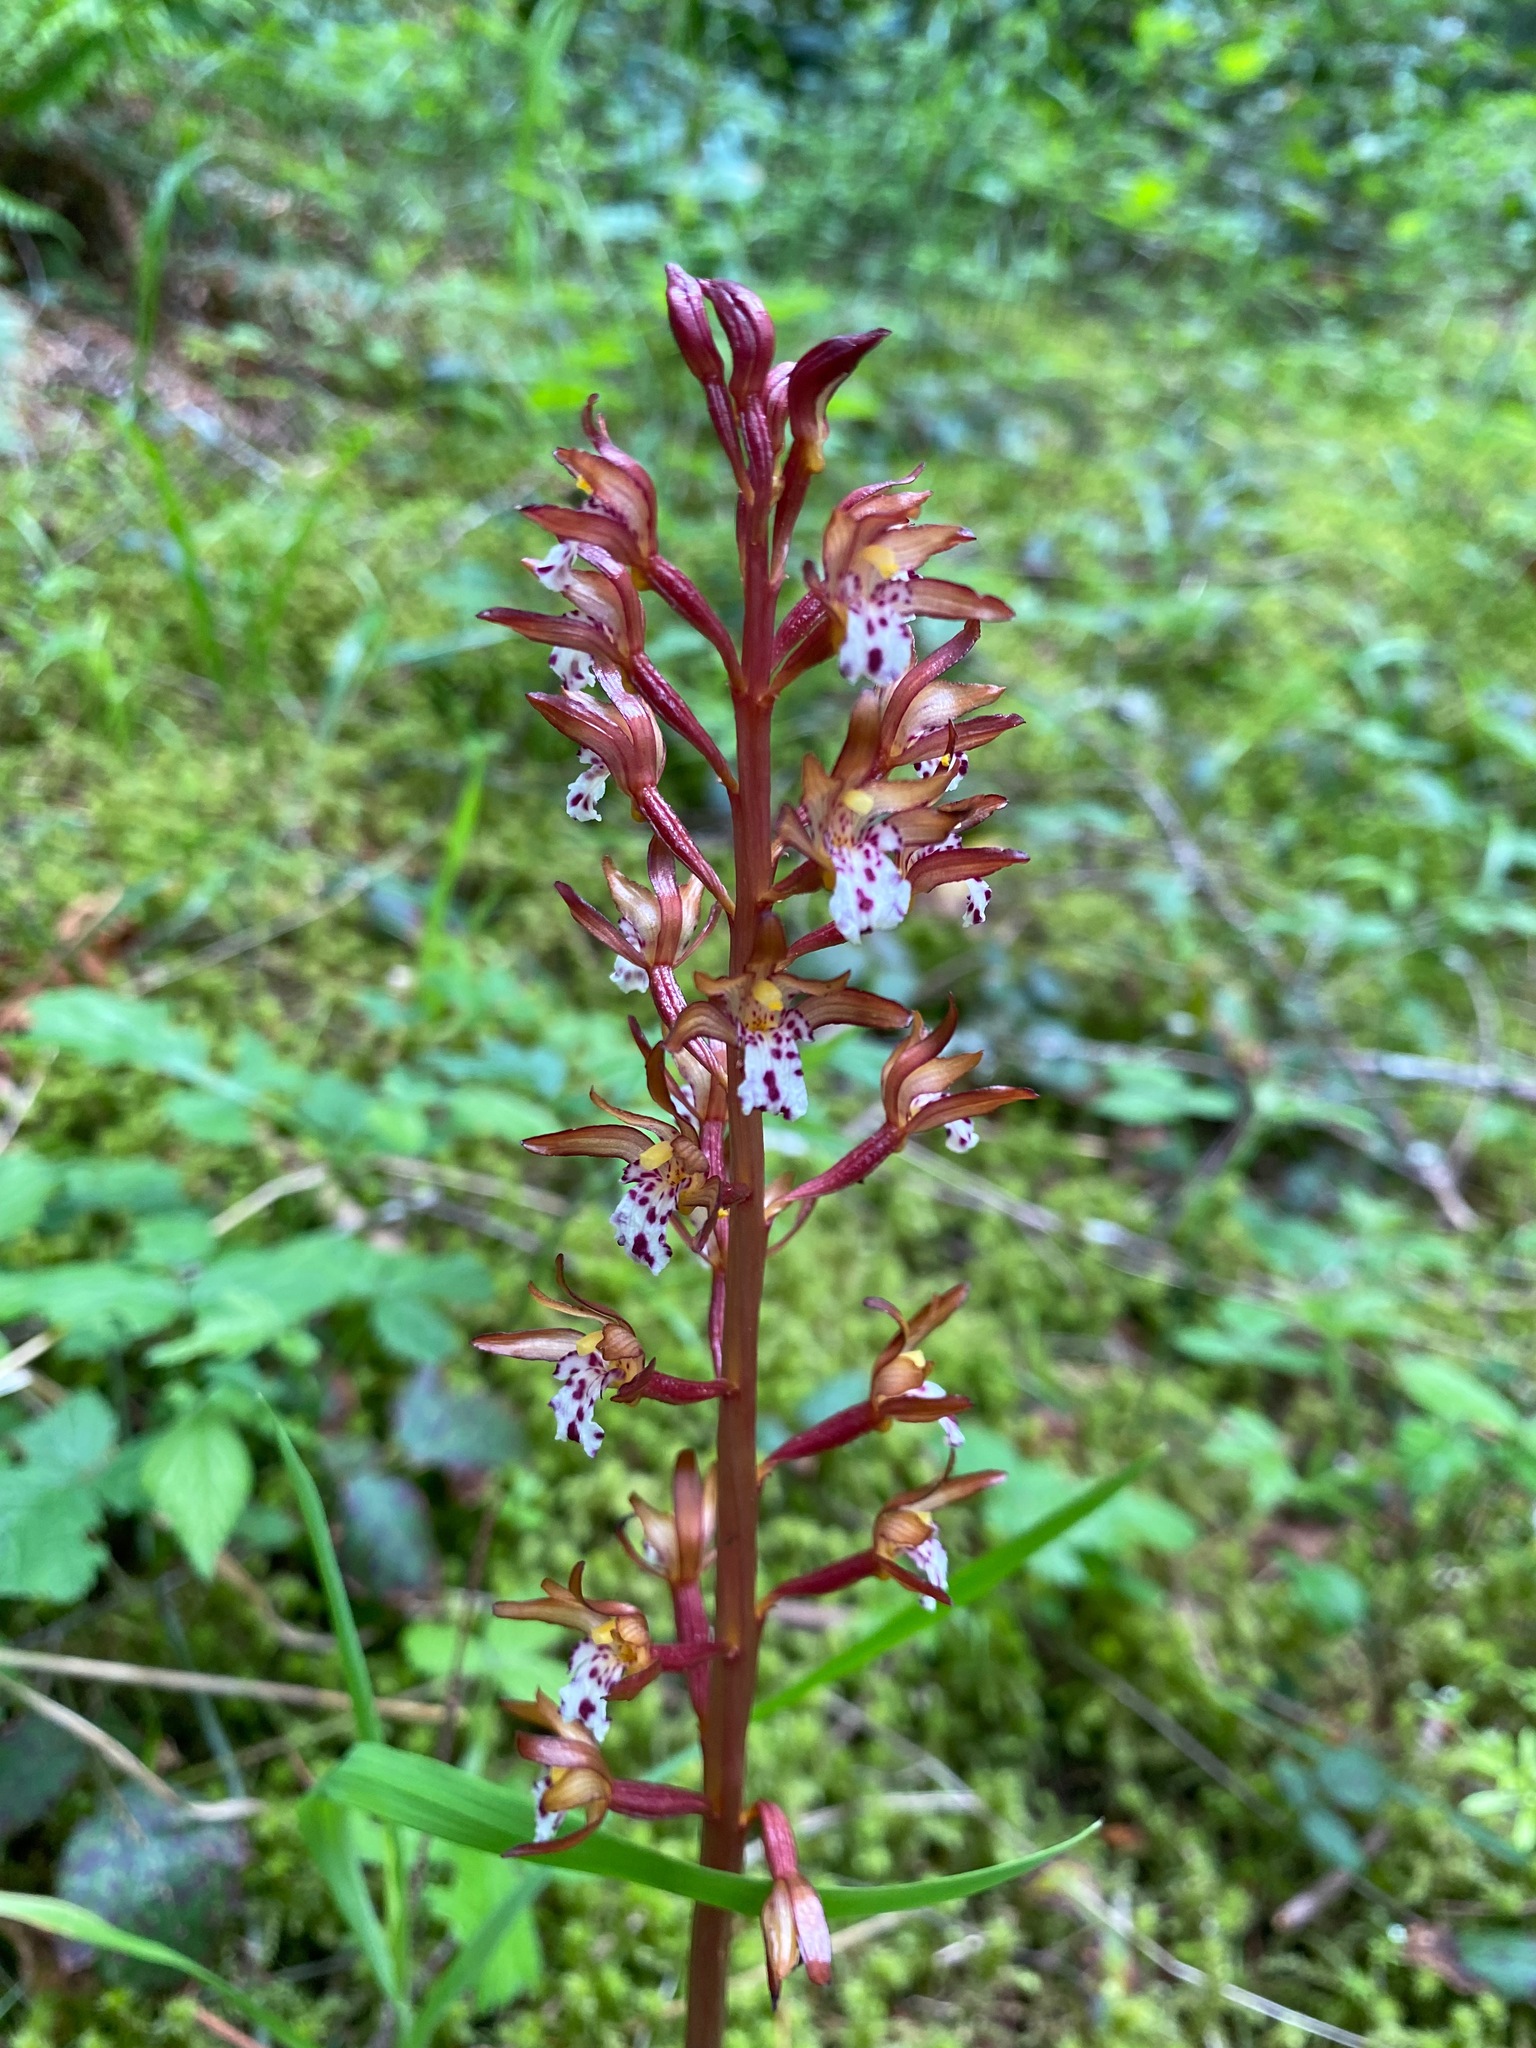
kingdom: Plantae
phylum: Tracheophyta
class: Liliopsida
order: Asparagales
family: Orchidaceae
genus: Corallorhiza
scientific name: Corallorhiza maculata
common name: Spotted coralroot
